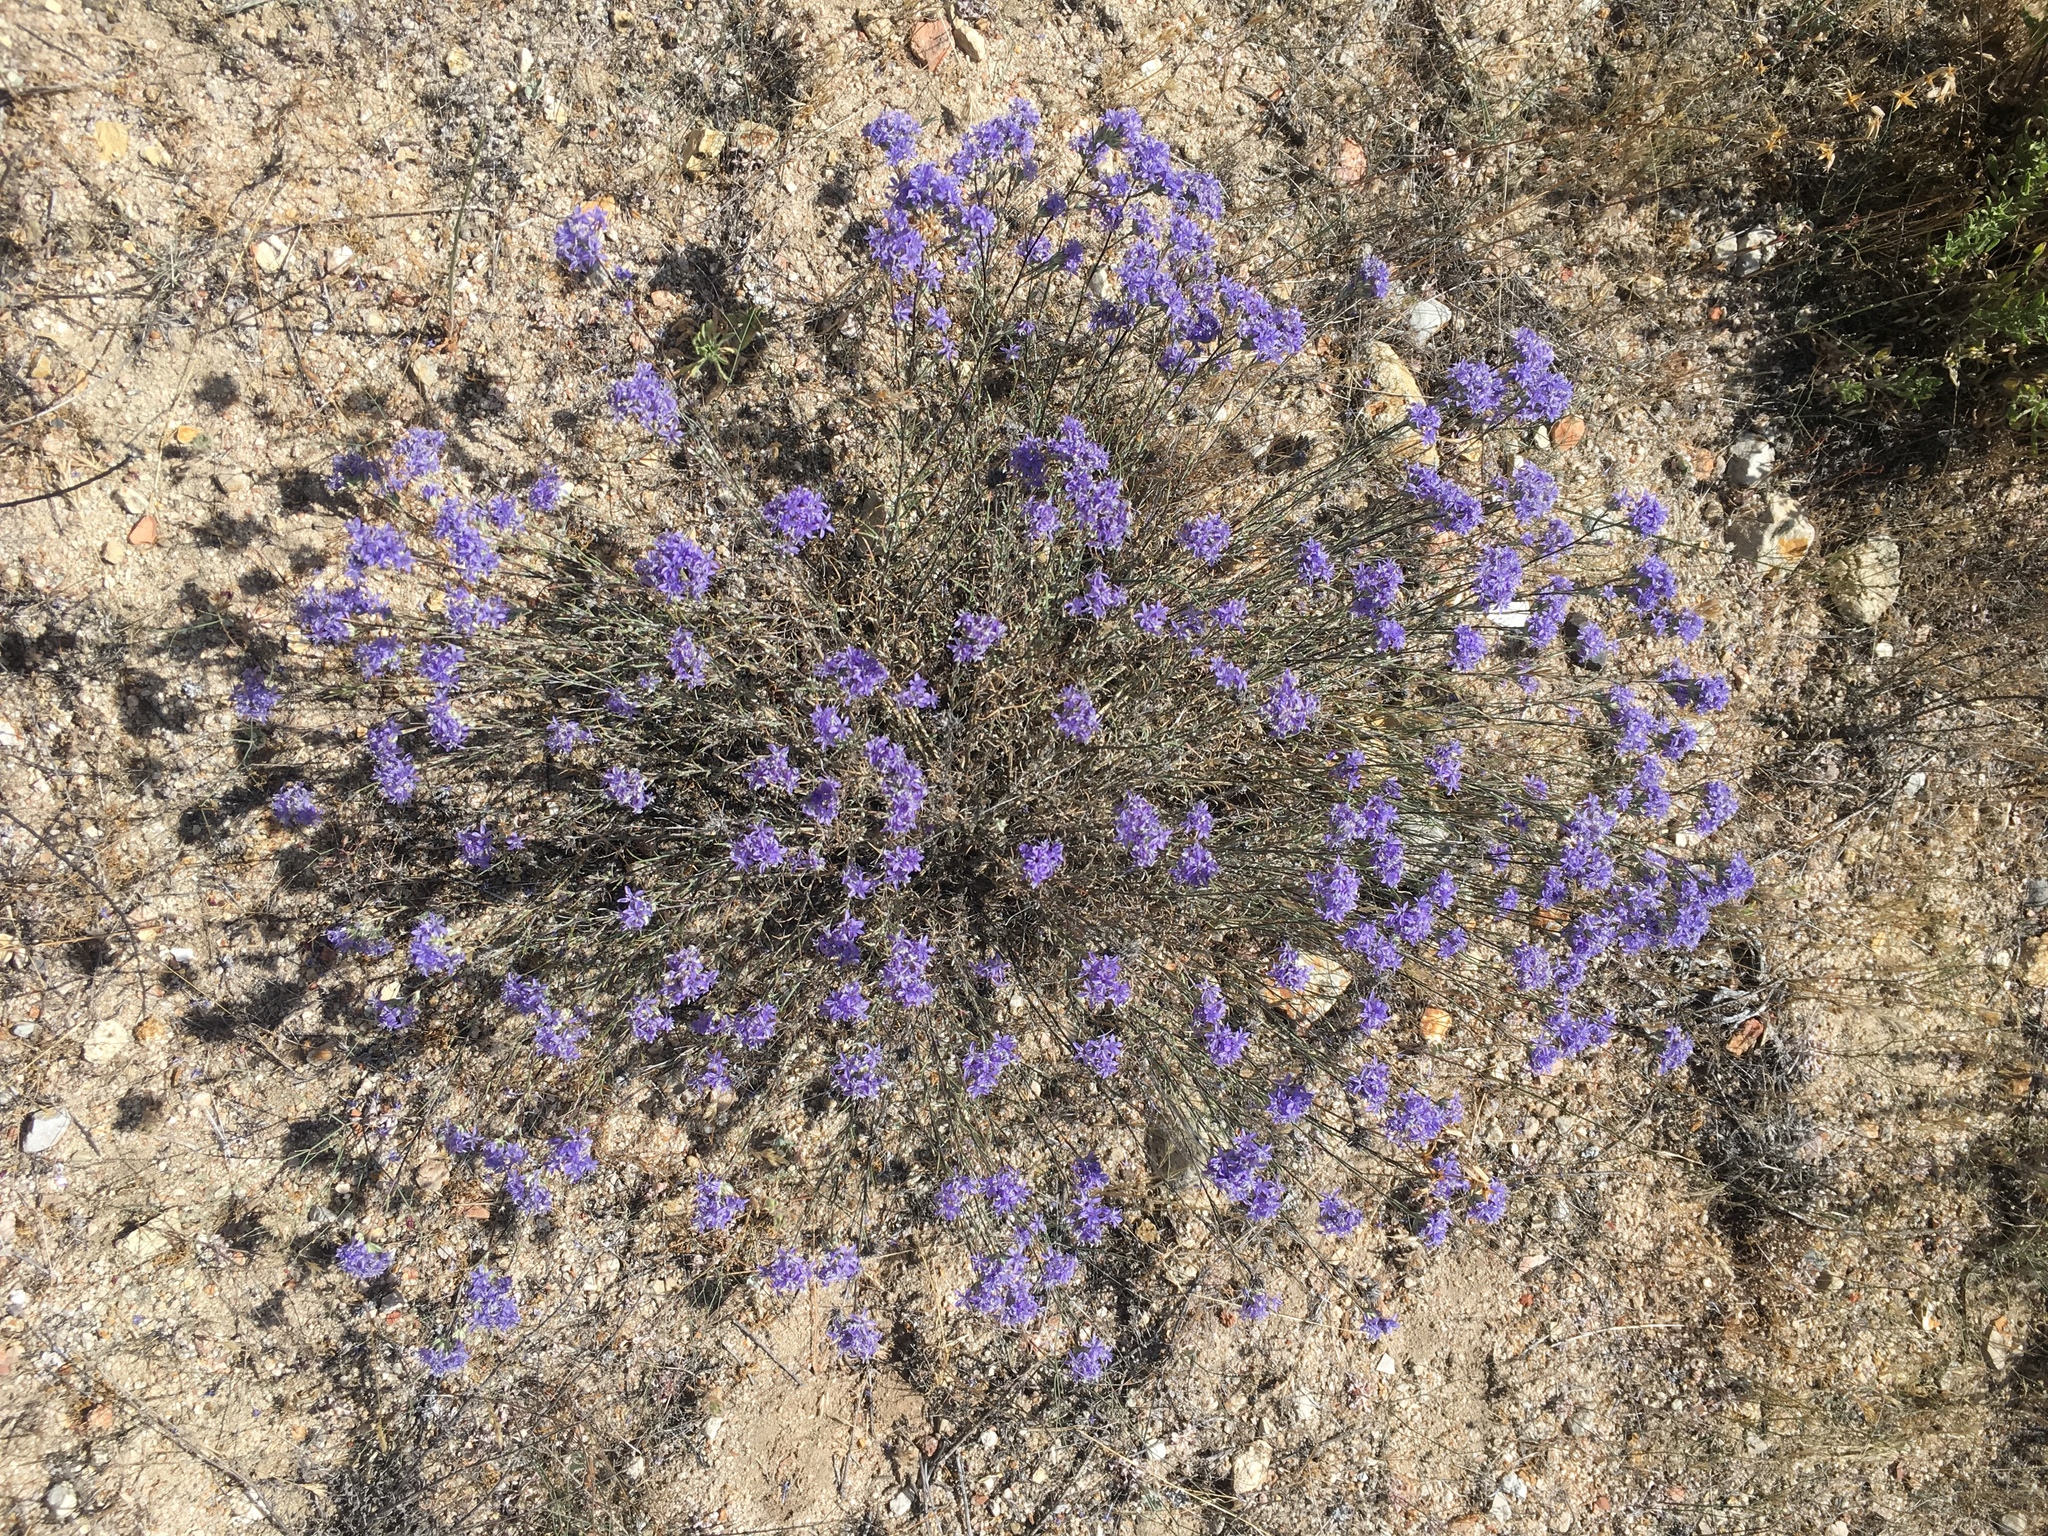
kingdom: Plantae
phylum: Tracheophyta
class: Magnoliopsida
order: Ericales
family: Polemoniaceae
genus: Eriastrum
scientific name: Eriastrum densifolium
